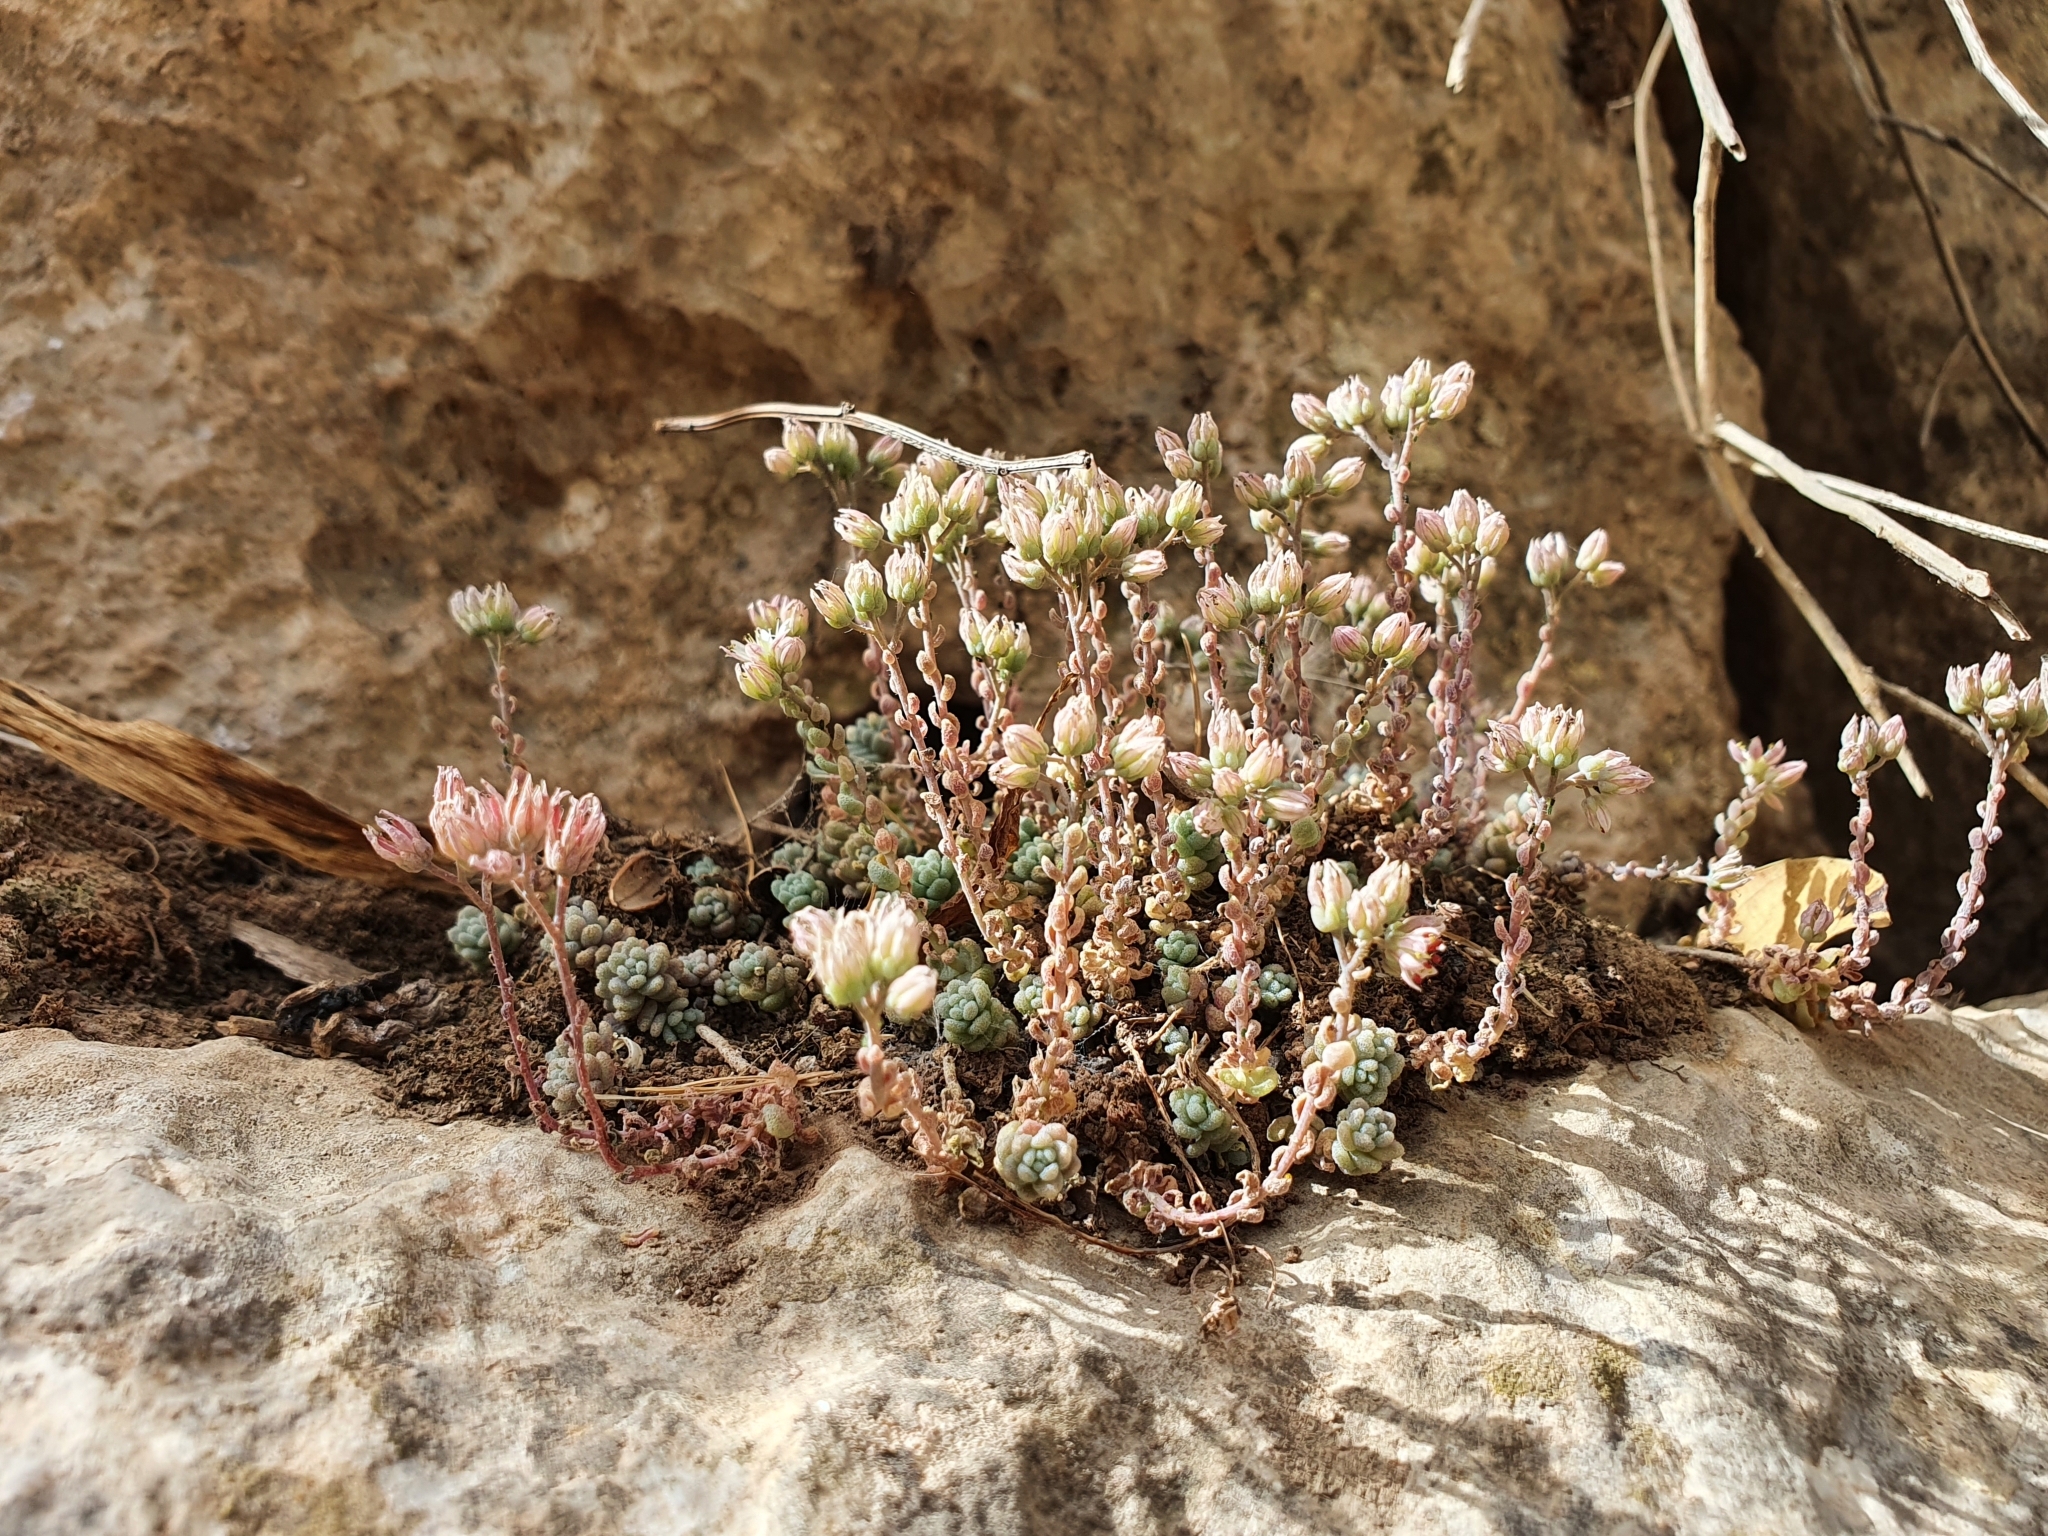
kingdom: Plantae
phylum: Tracheophyta
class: Magnoliopsida
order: Saxifragales
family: Crassulaceae
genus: Sedum
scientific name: Sedum dasyphyllum
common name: Thick-leaf stonecrop
